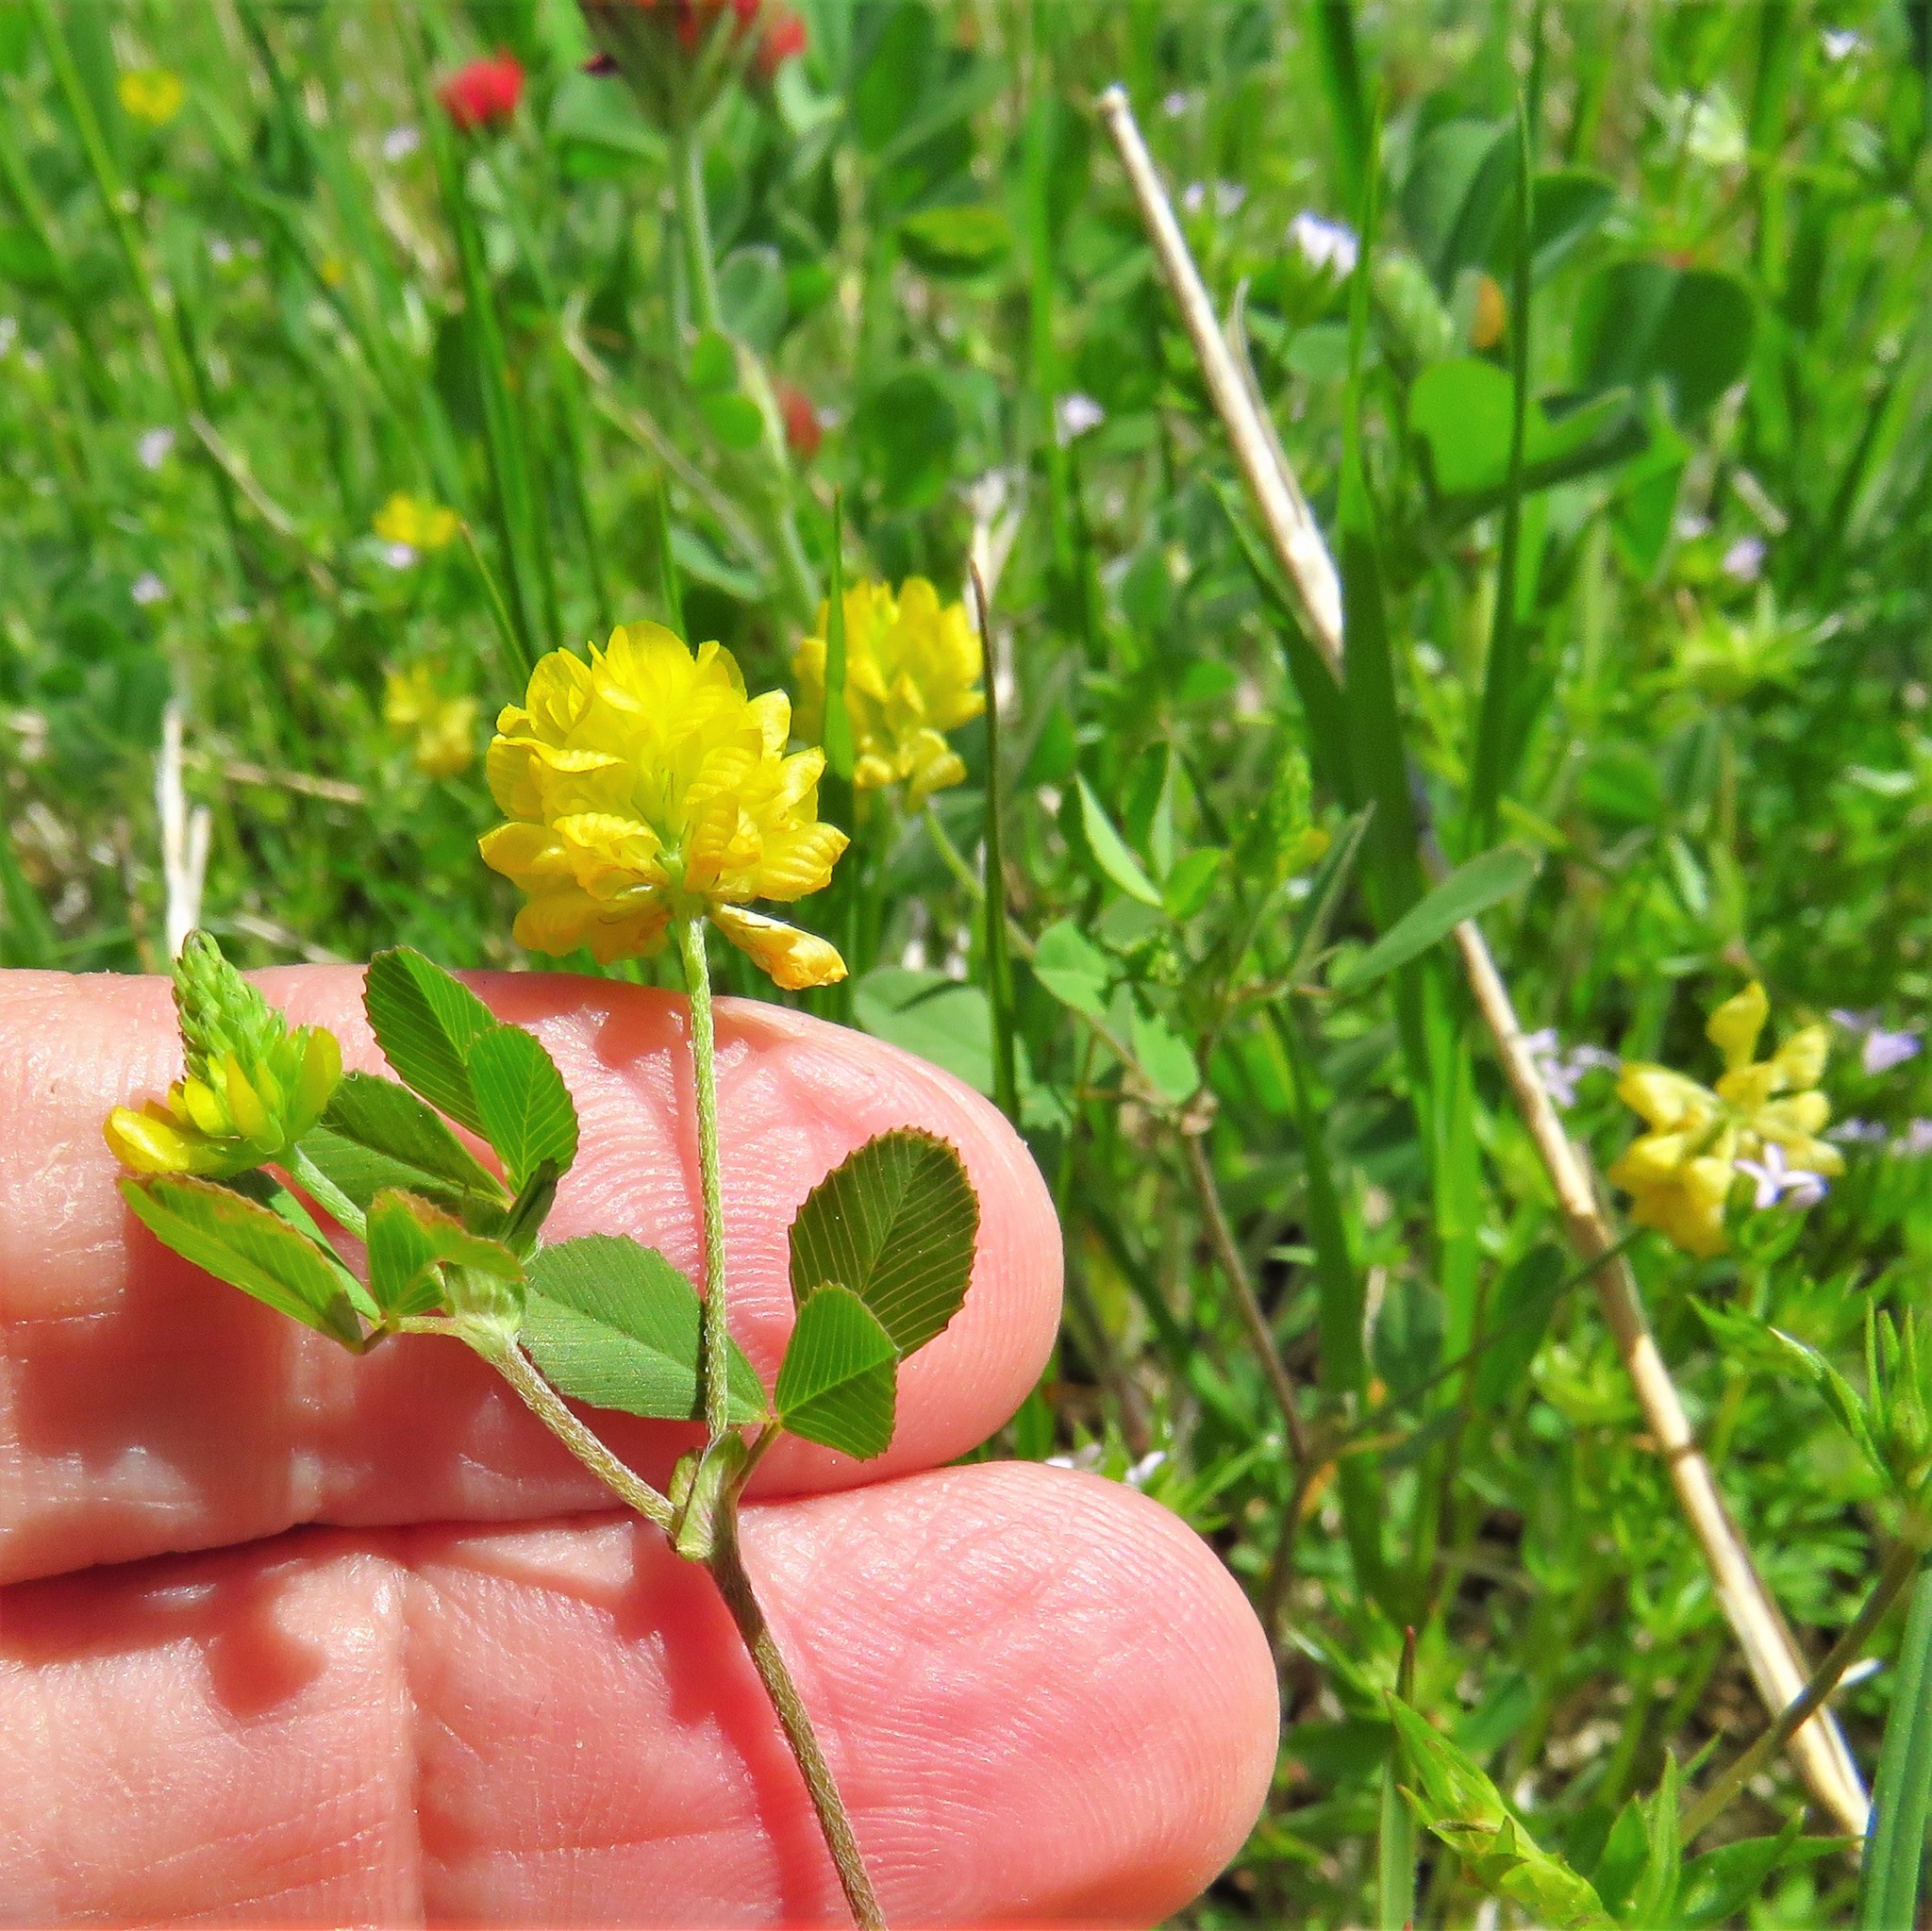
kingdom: Plantae
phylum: Tracheophyta
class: Magnoliopsida
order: Fabales
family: Fabaceae
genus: Trifolium
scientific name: Trifolium campestre
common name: Field clover
